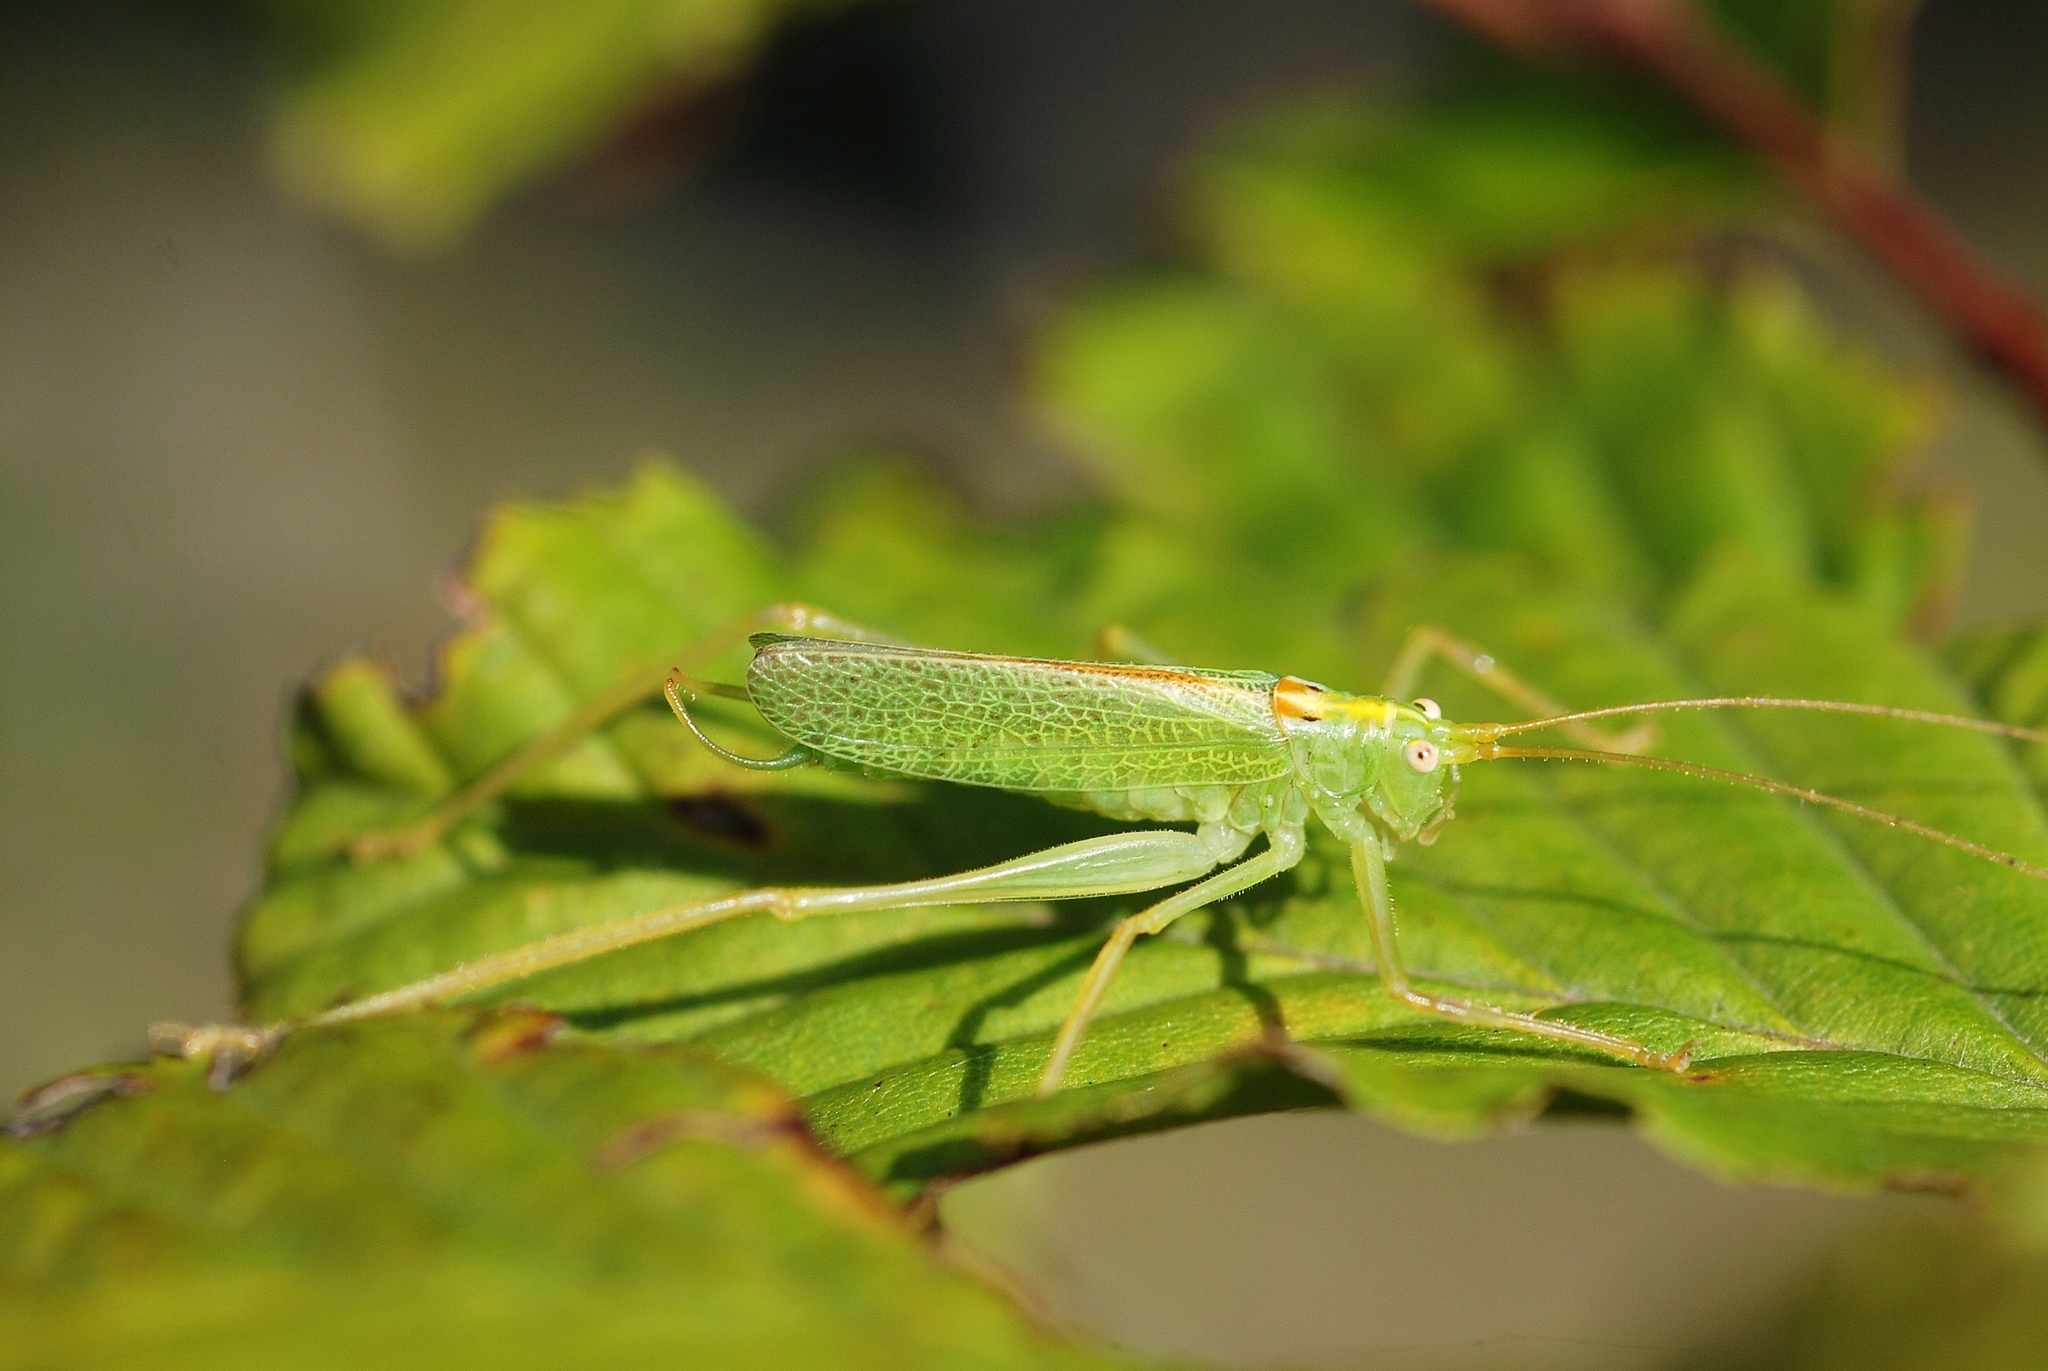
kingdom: Animalia
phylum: Arthropoda
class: Insecta
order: Orthoptera
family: Tettigoniidae
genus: Meconema
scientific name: Meconema thalassinum
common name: Oak bush-cricket
